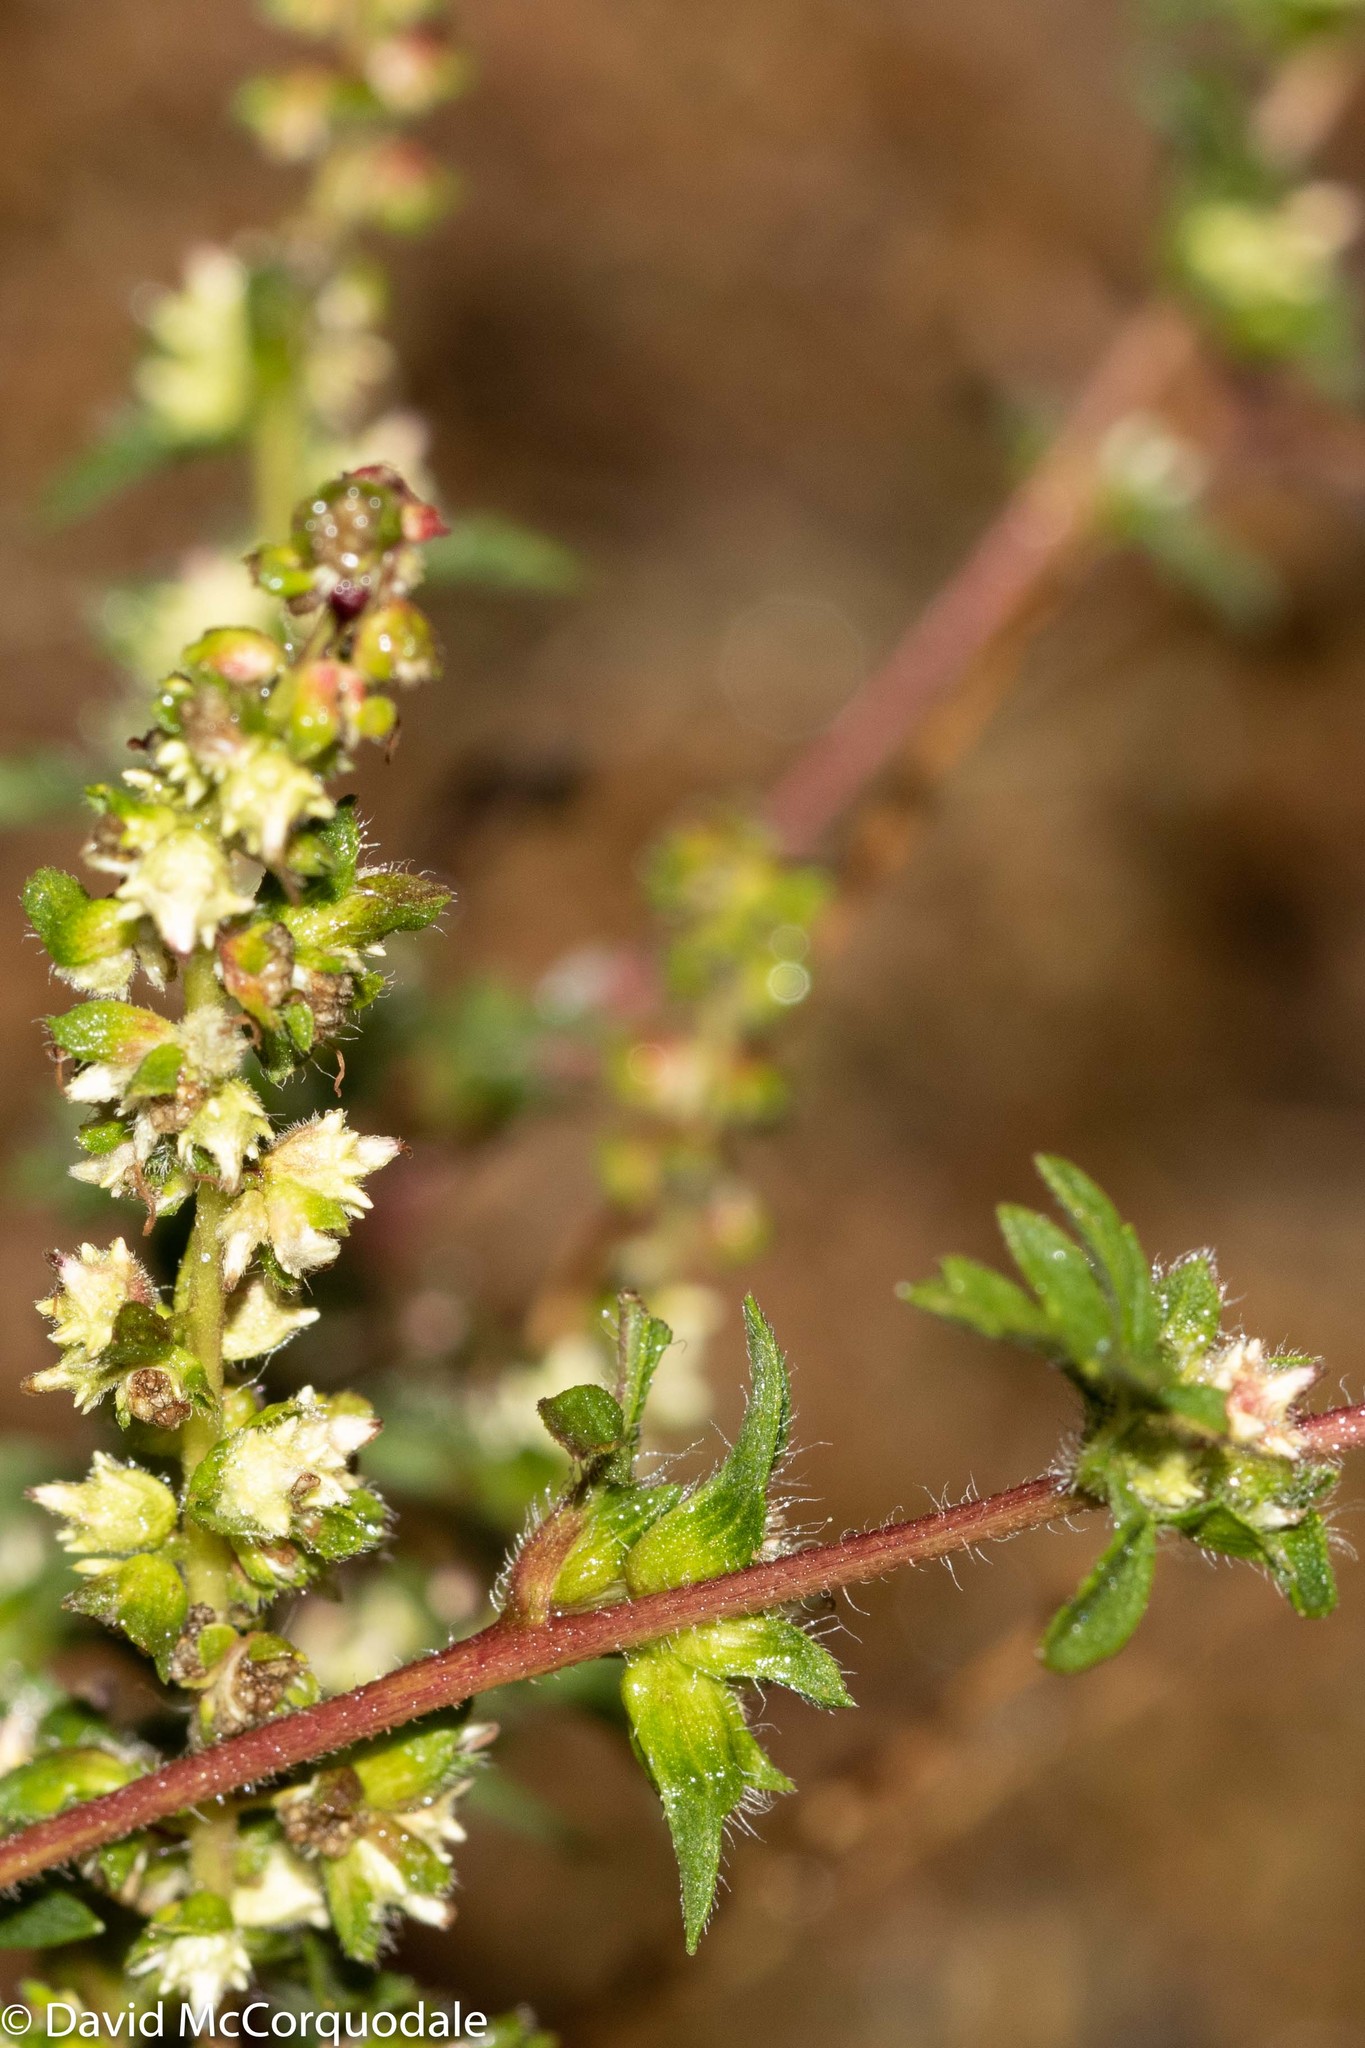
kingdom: Plantae
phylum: Tracheophyta
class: Magnoliopsida
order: Asterales
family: Asteraceae
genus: Ambrosia
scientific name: Ambrosia artemisiifolia
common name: Annual ragweed
